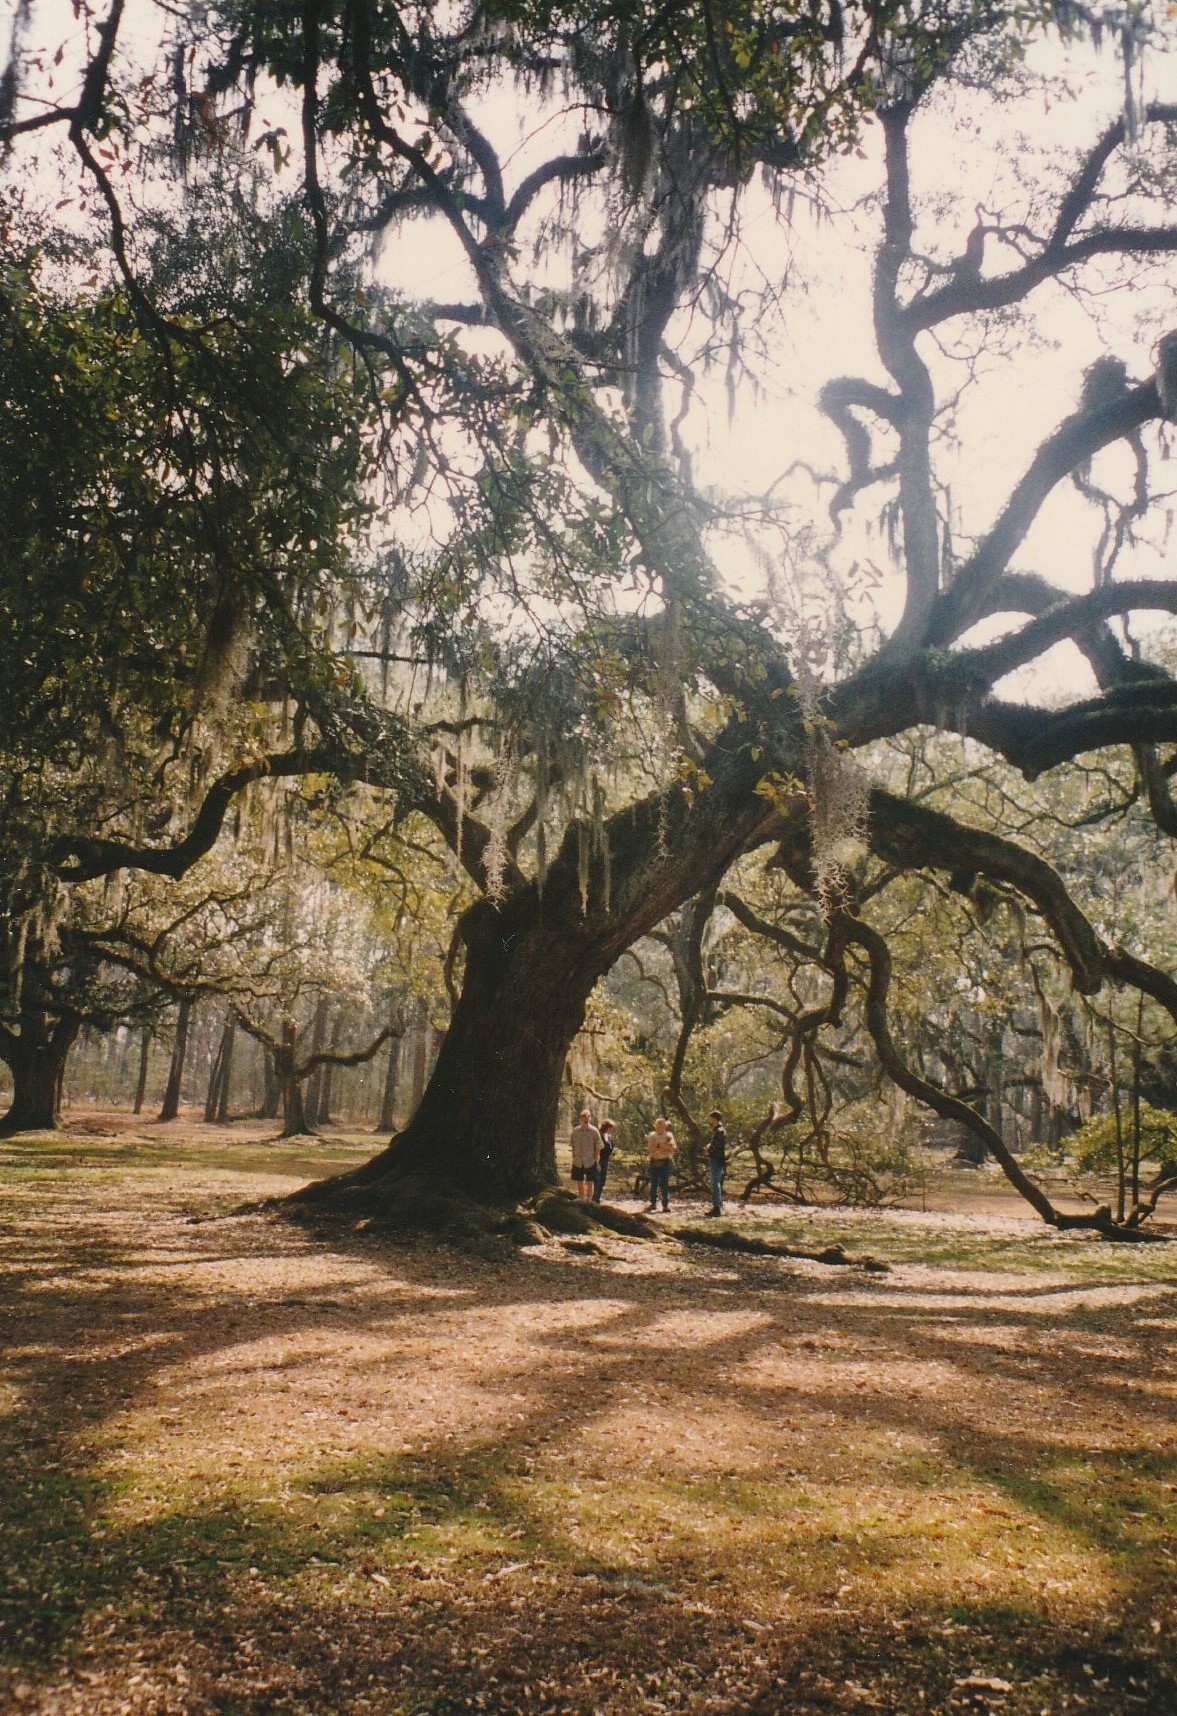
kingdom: Plantae
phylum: Tracheophyta
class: Magnoliopsida
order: Fagales
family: Fagaceae
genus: Quercus
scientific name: Quercus virginiana
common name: Southern live oak
